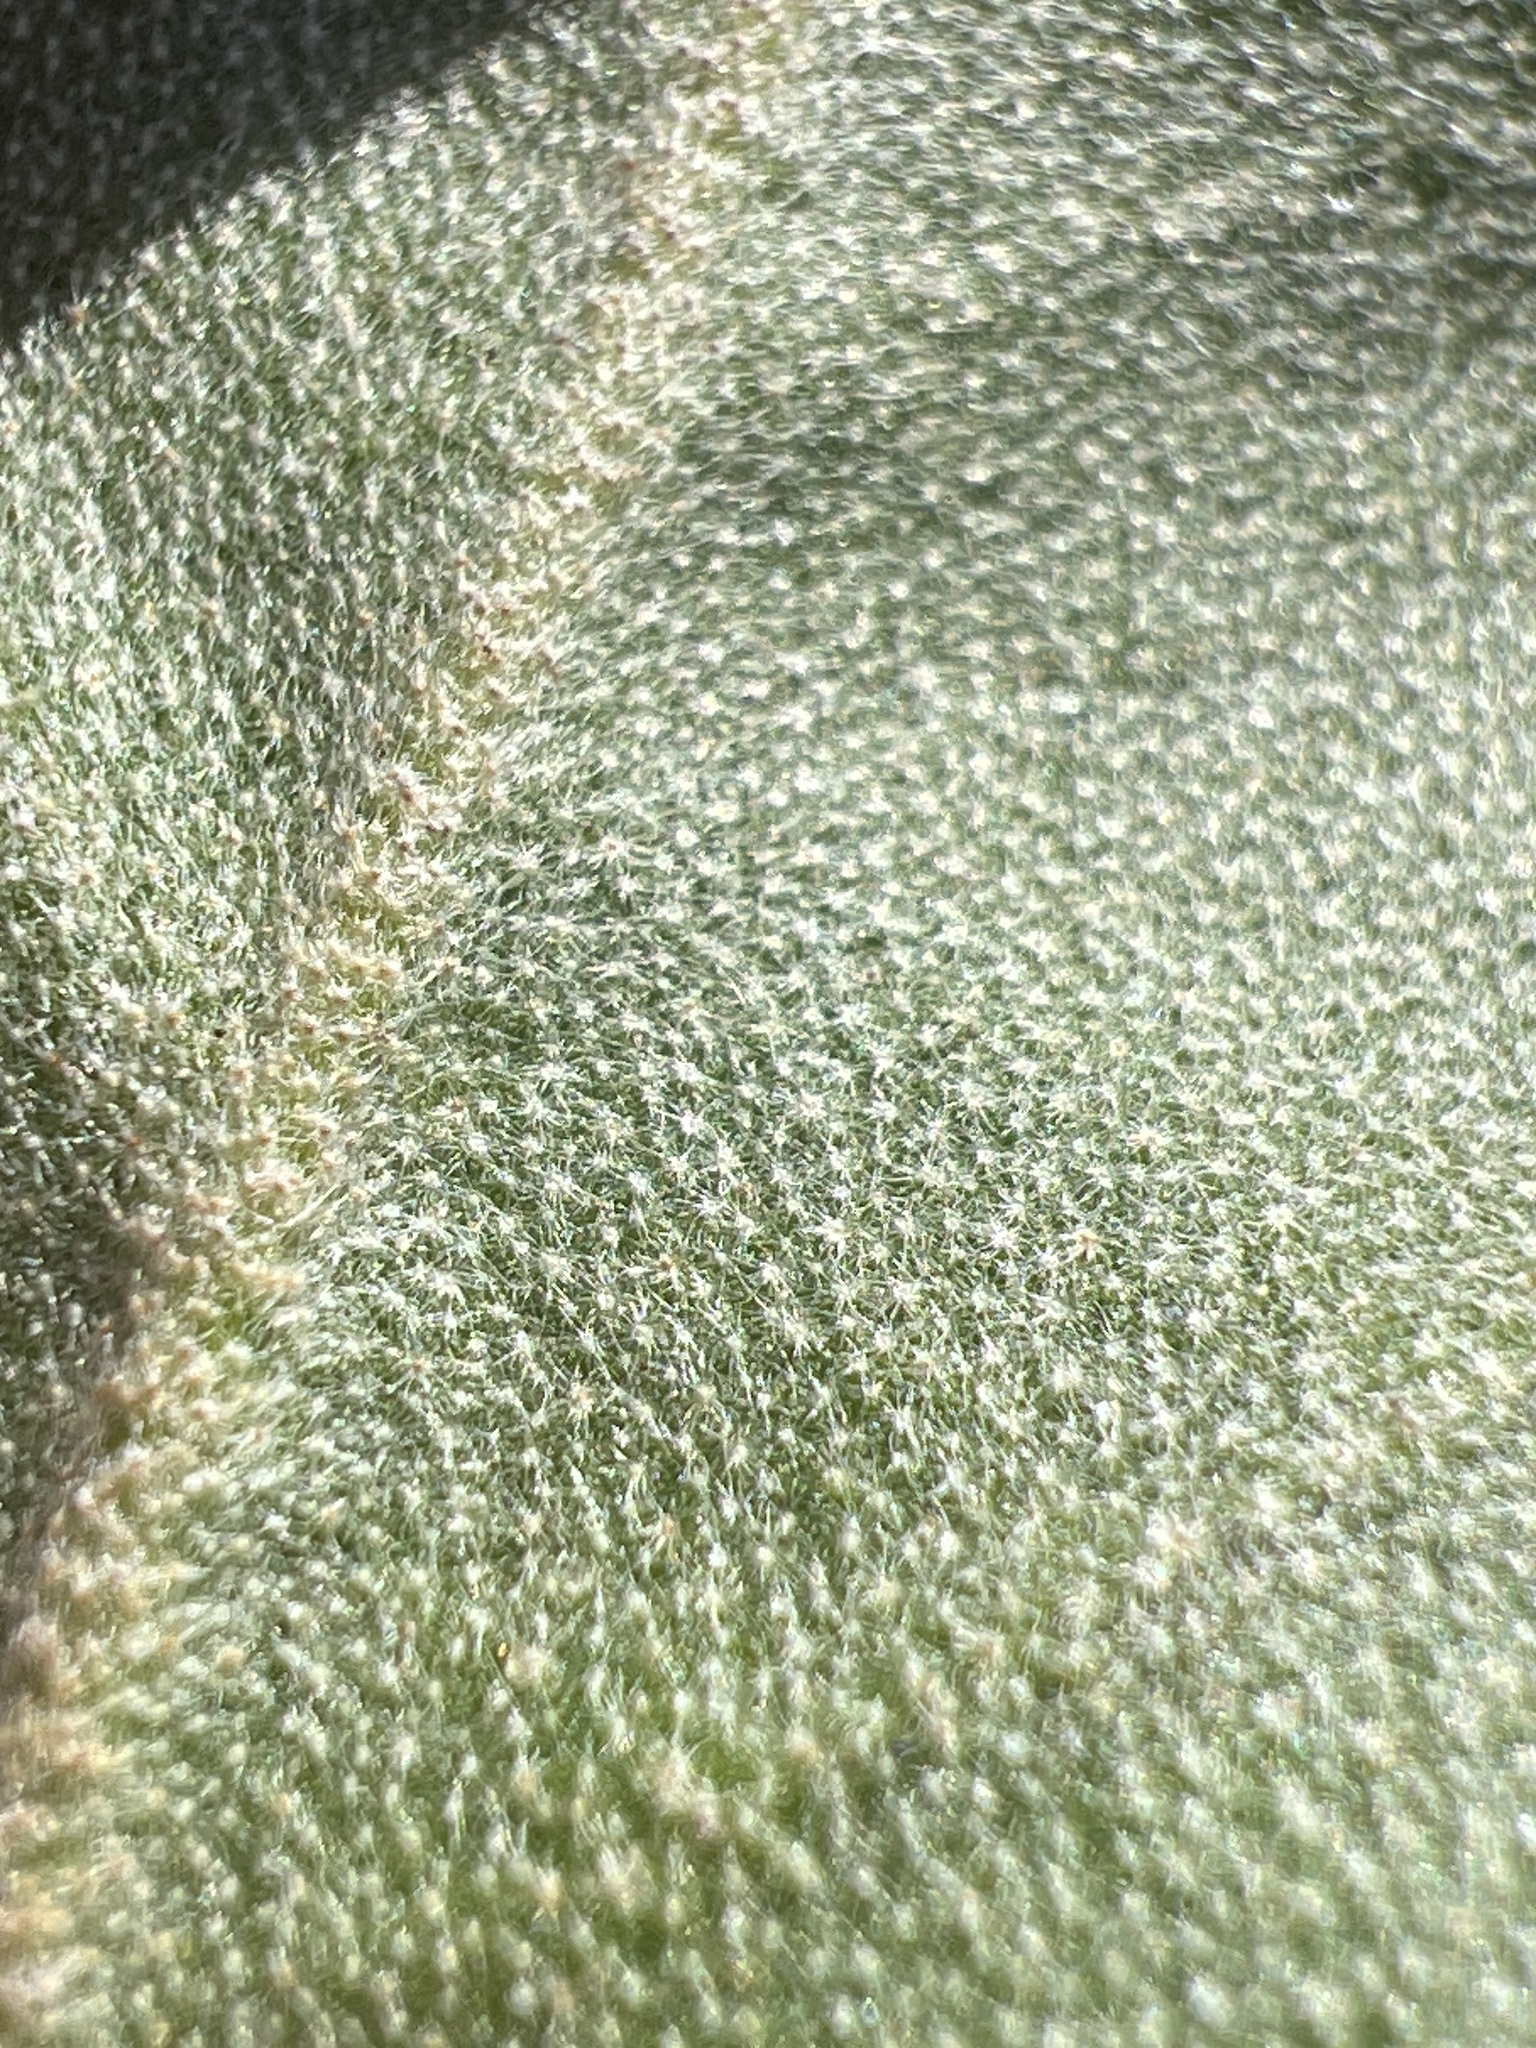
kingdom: Plantae
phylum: Tracheophyta
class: Magnoliopsida
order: Malpighiales
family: Euphorbiaceae
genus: Croton
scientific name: Croton punctatus
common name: Beach-tea
